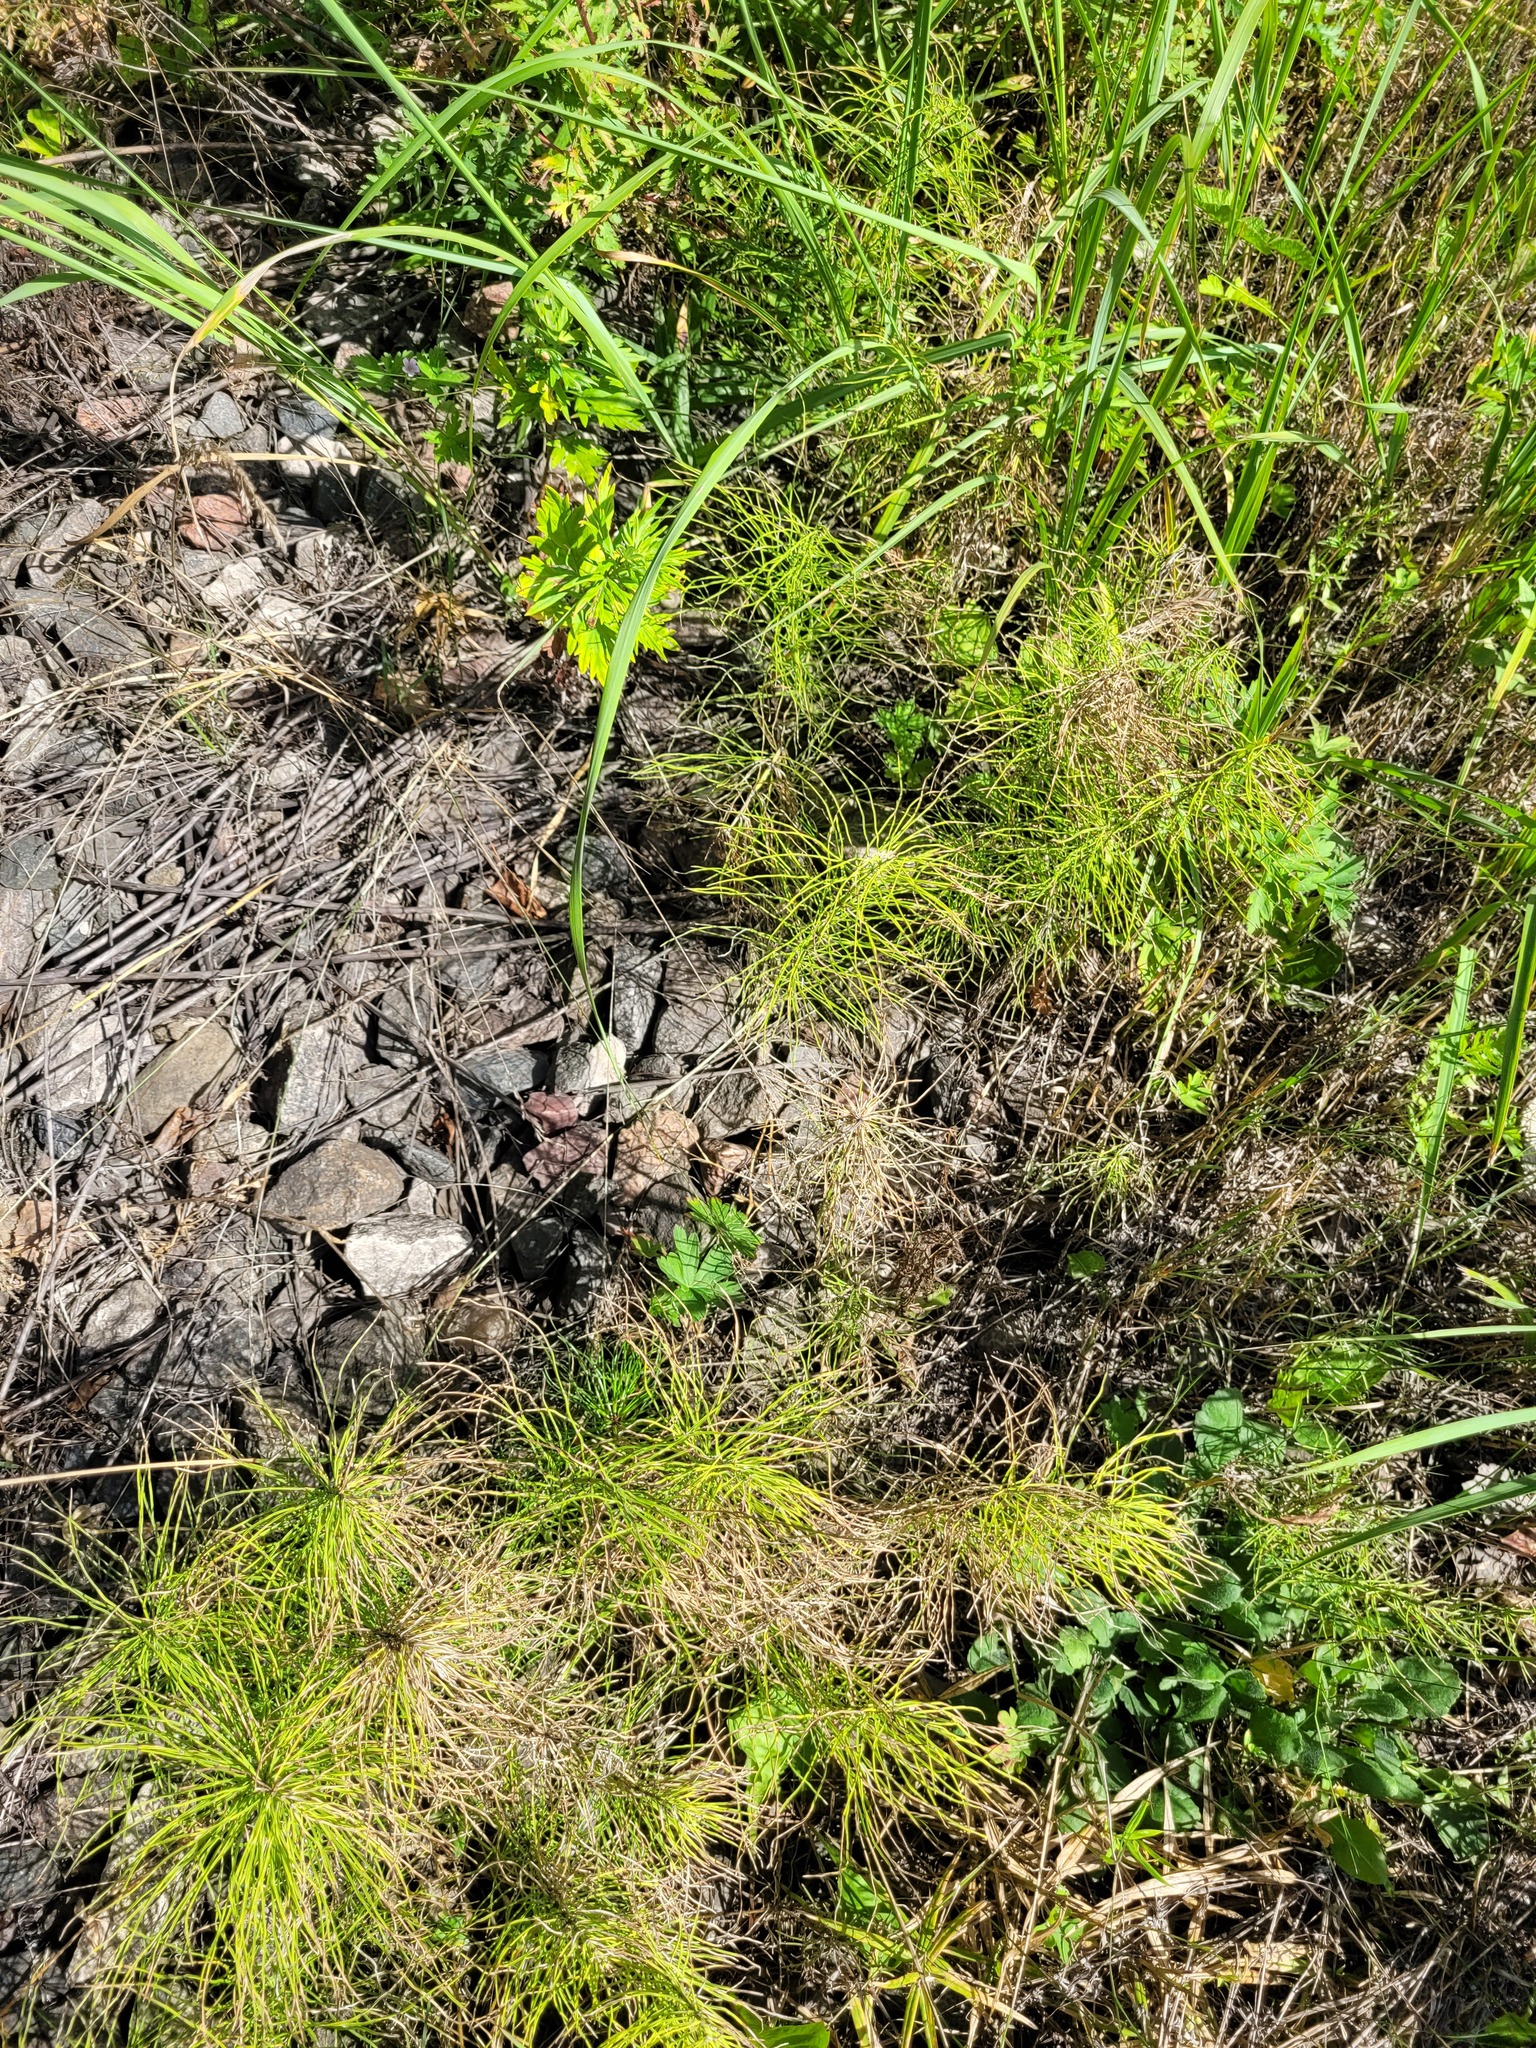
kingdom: Plantae
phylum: Tracheophyta
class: Polypodiopsida
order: Equisetales
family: Equisetaceae
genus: Equisetum
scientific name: Equisetum pratense
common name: Meadow horsetail
